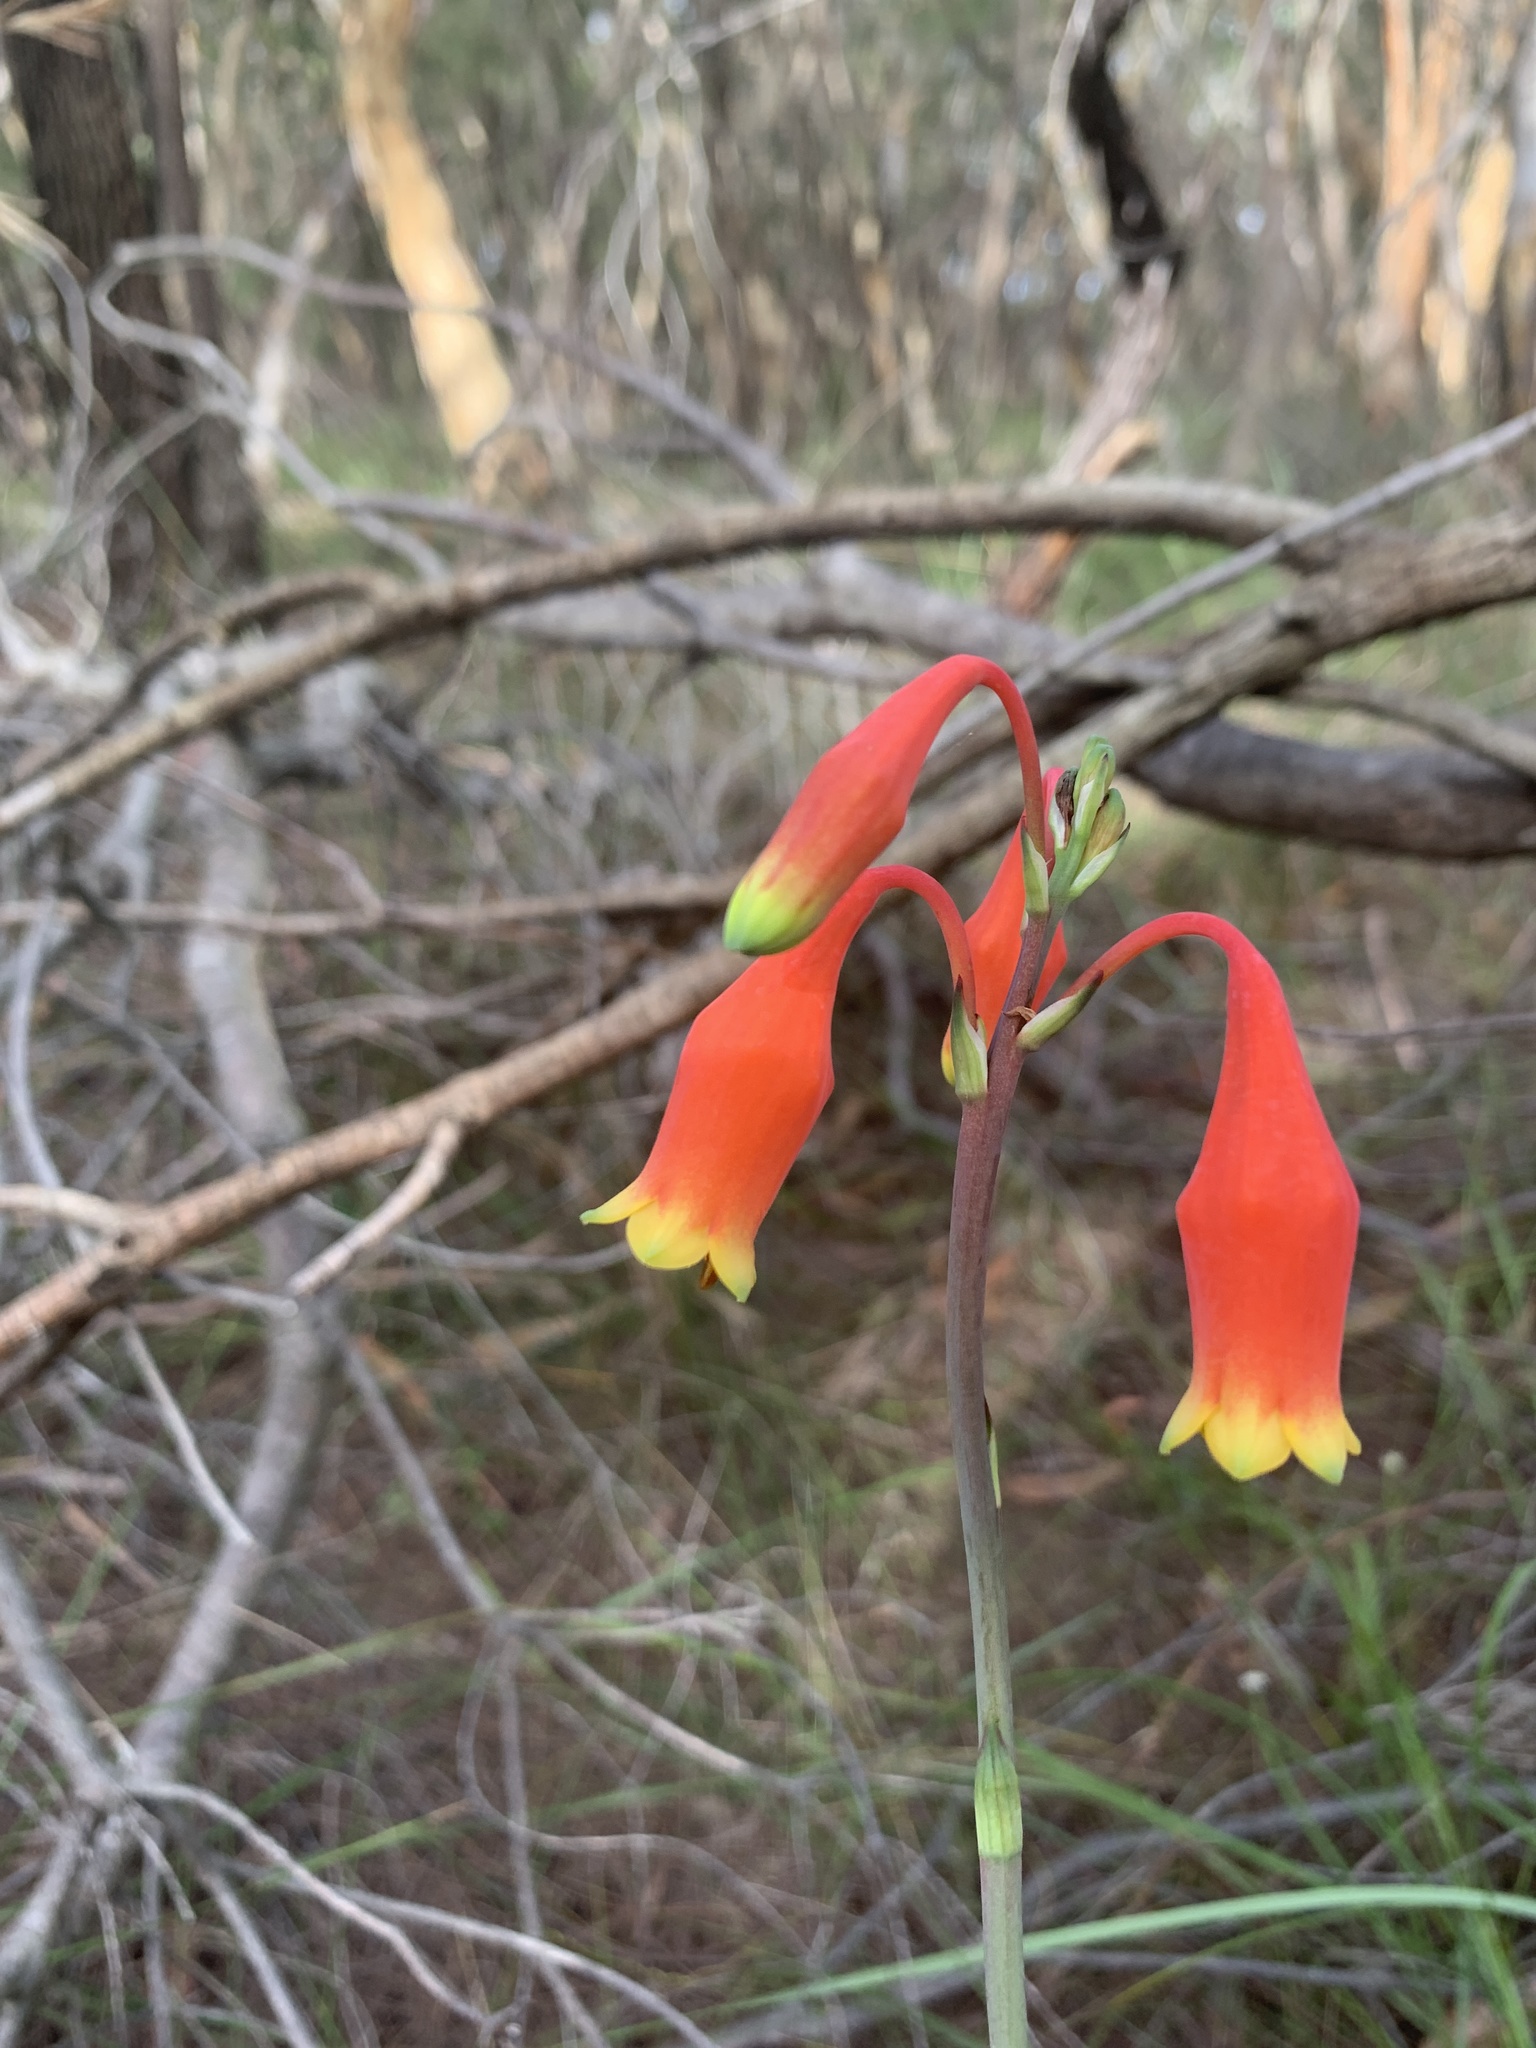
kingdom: Plantae
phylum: Tracheophyta
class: Liliopsida
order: Asparagales
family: Blandfordiaceae
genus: Blandfordia
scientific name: Blandfordia nobilis
